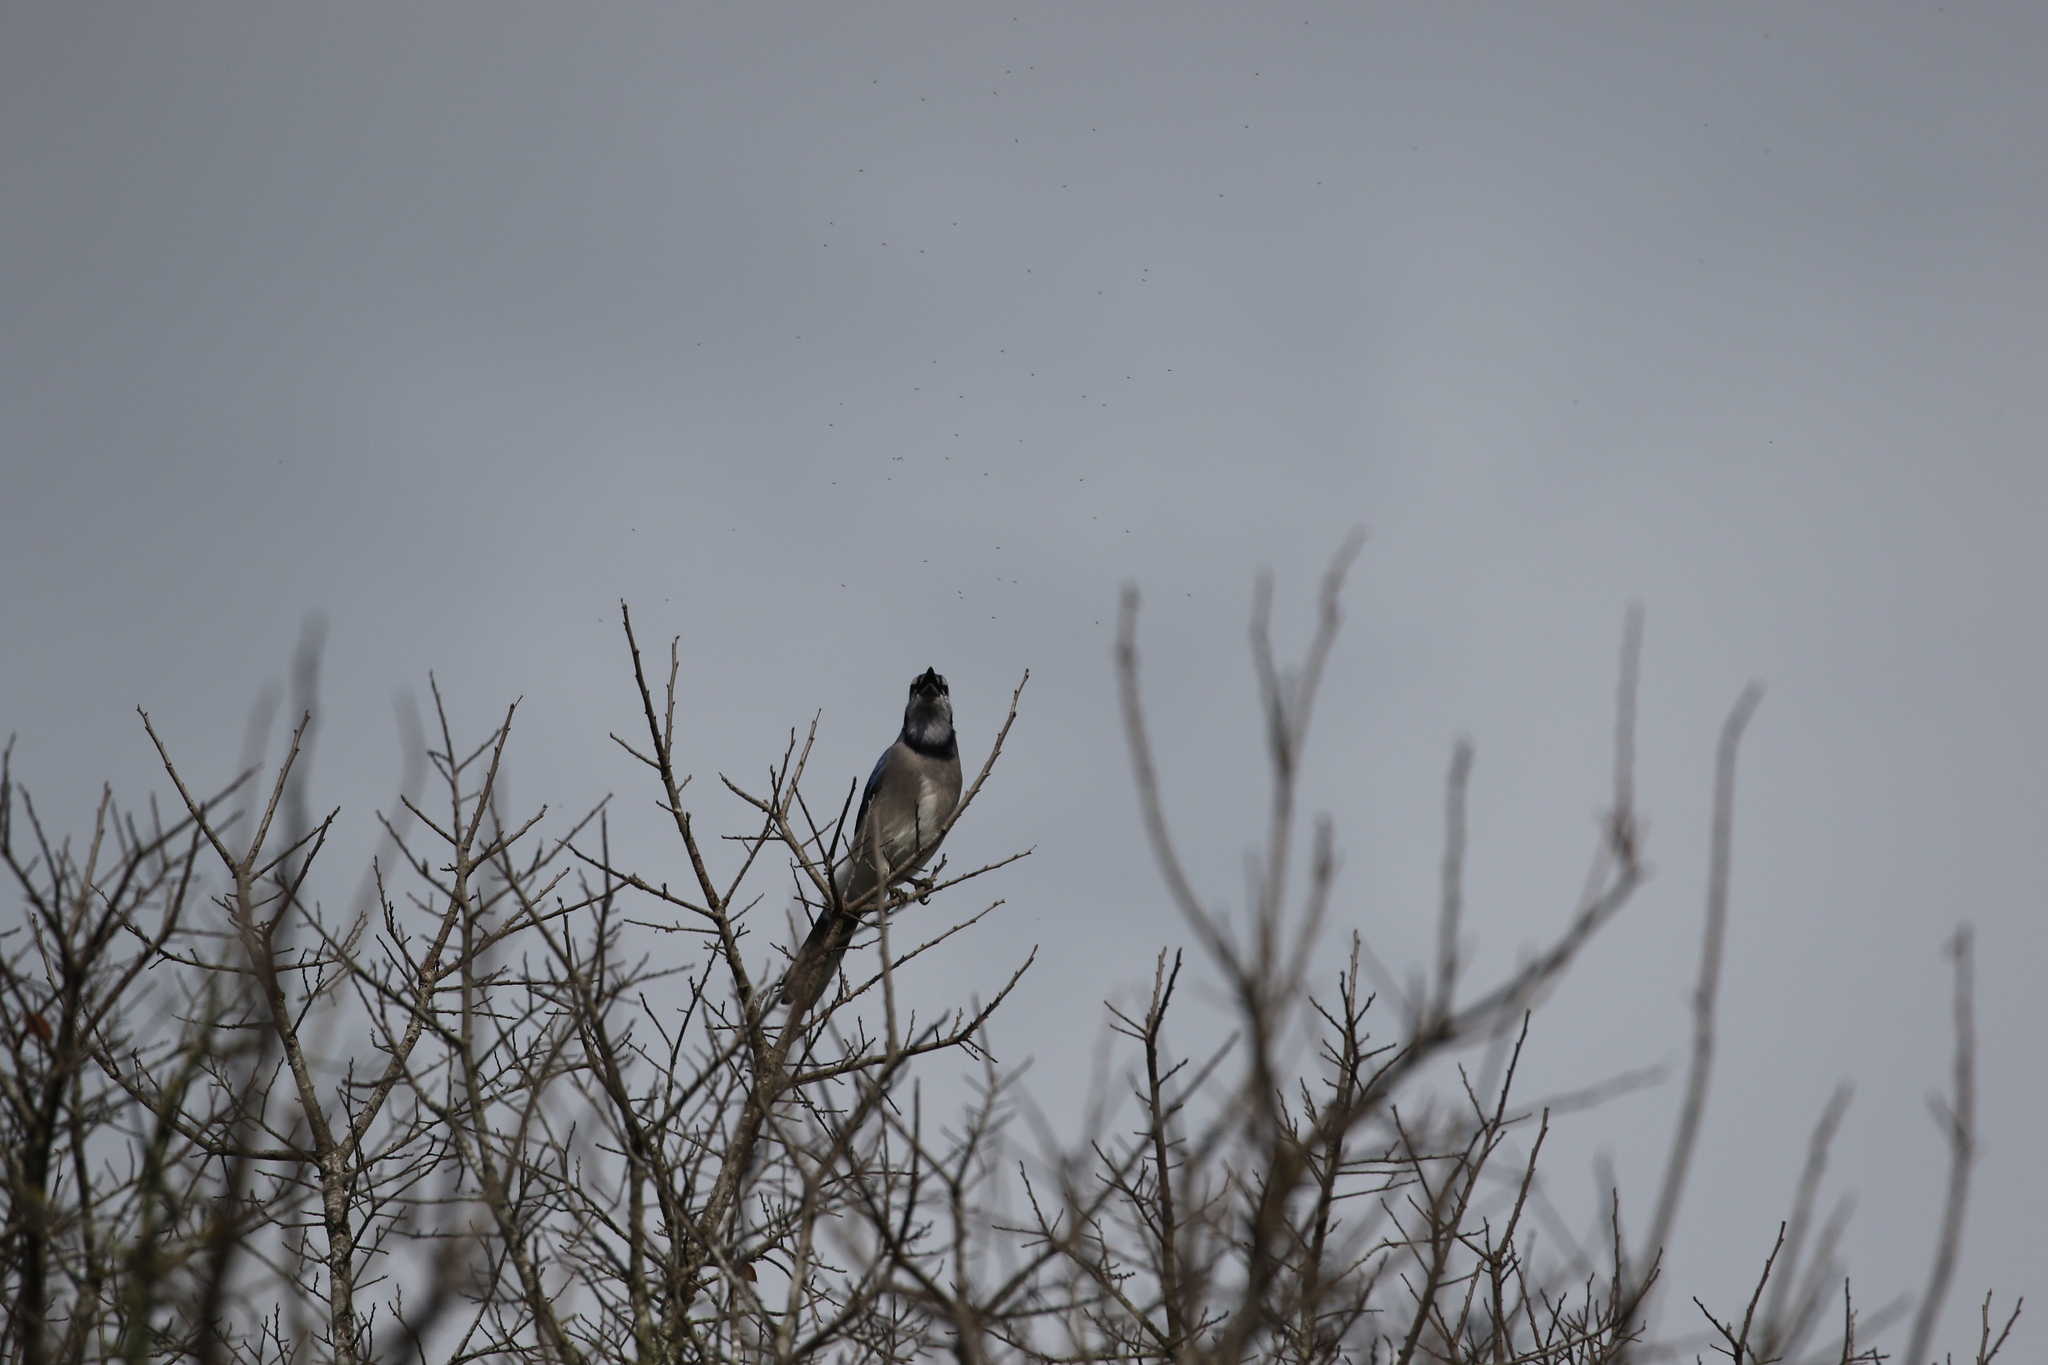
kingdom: Animalia
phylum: Chordata
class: Aves
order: Passeriformes
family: Corvidae
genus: Cyanocitta
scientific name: Cyanocitta cristata
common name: Blue jay
